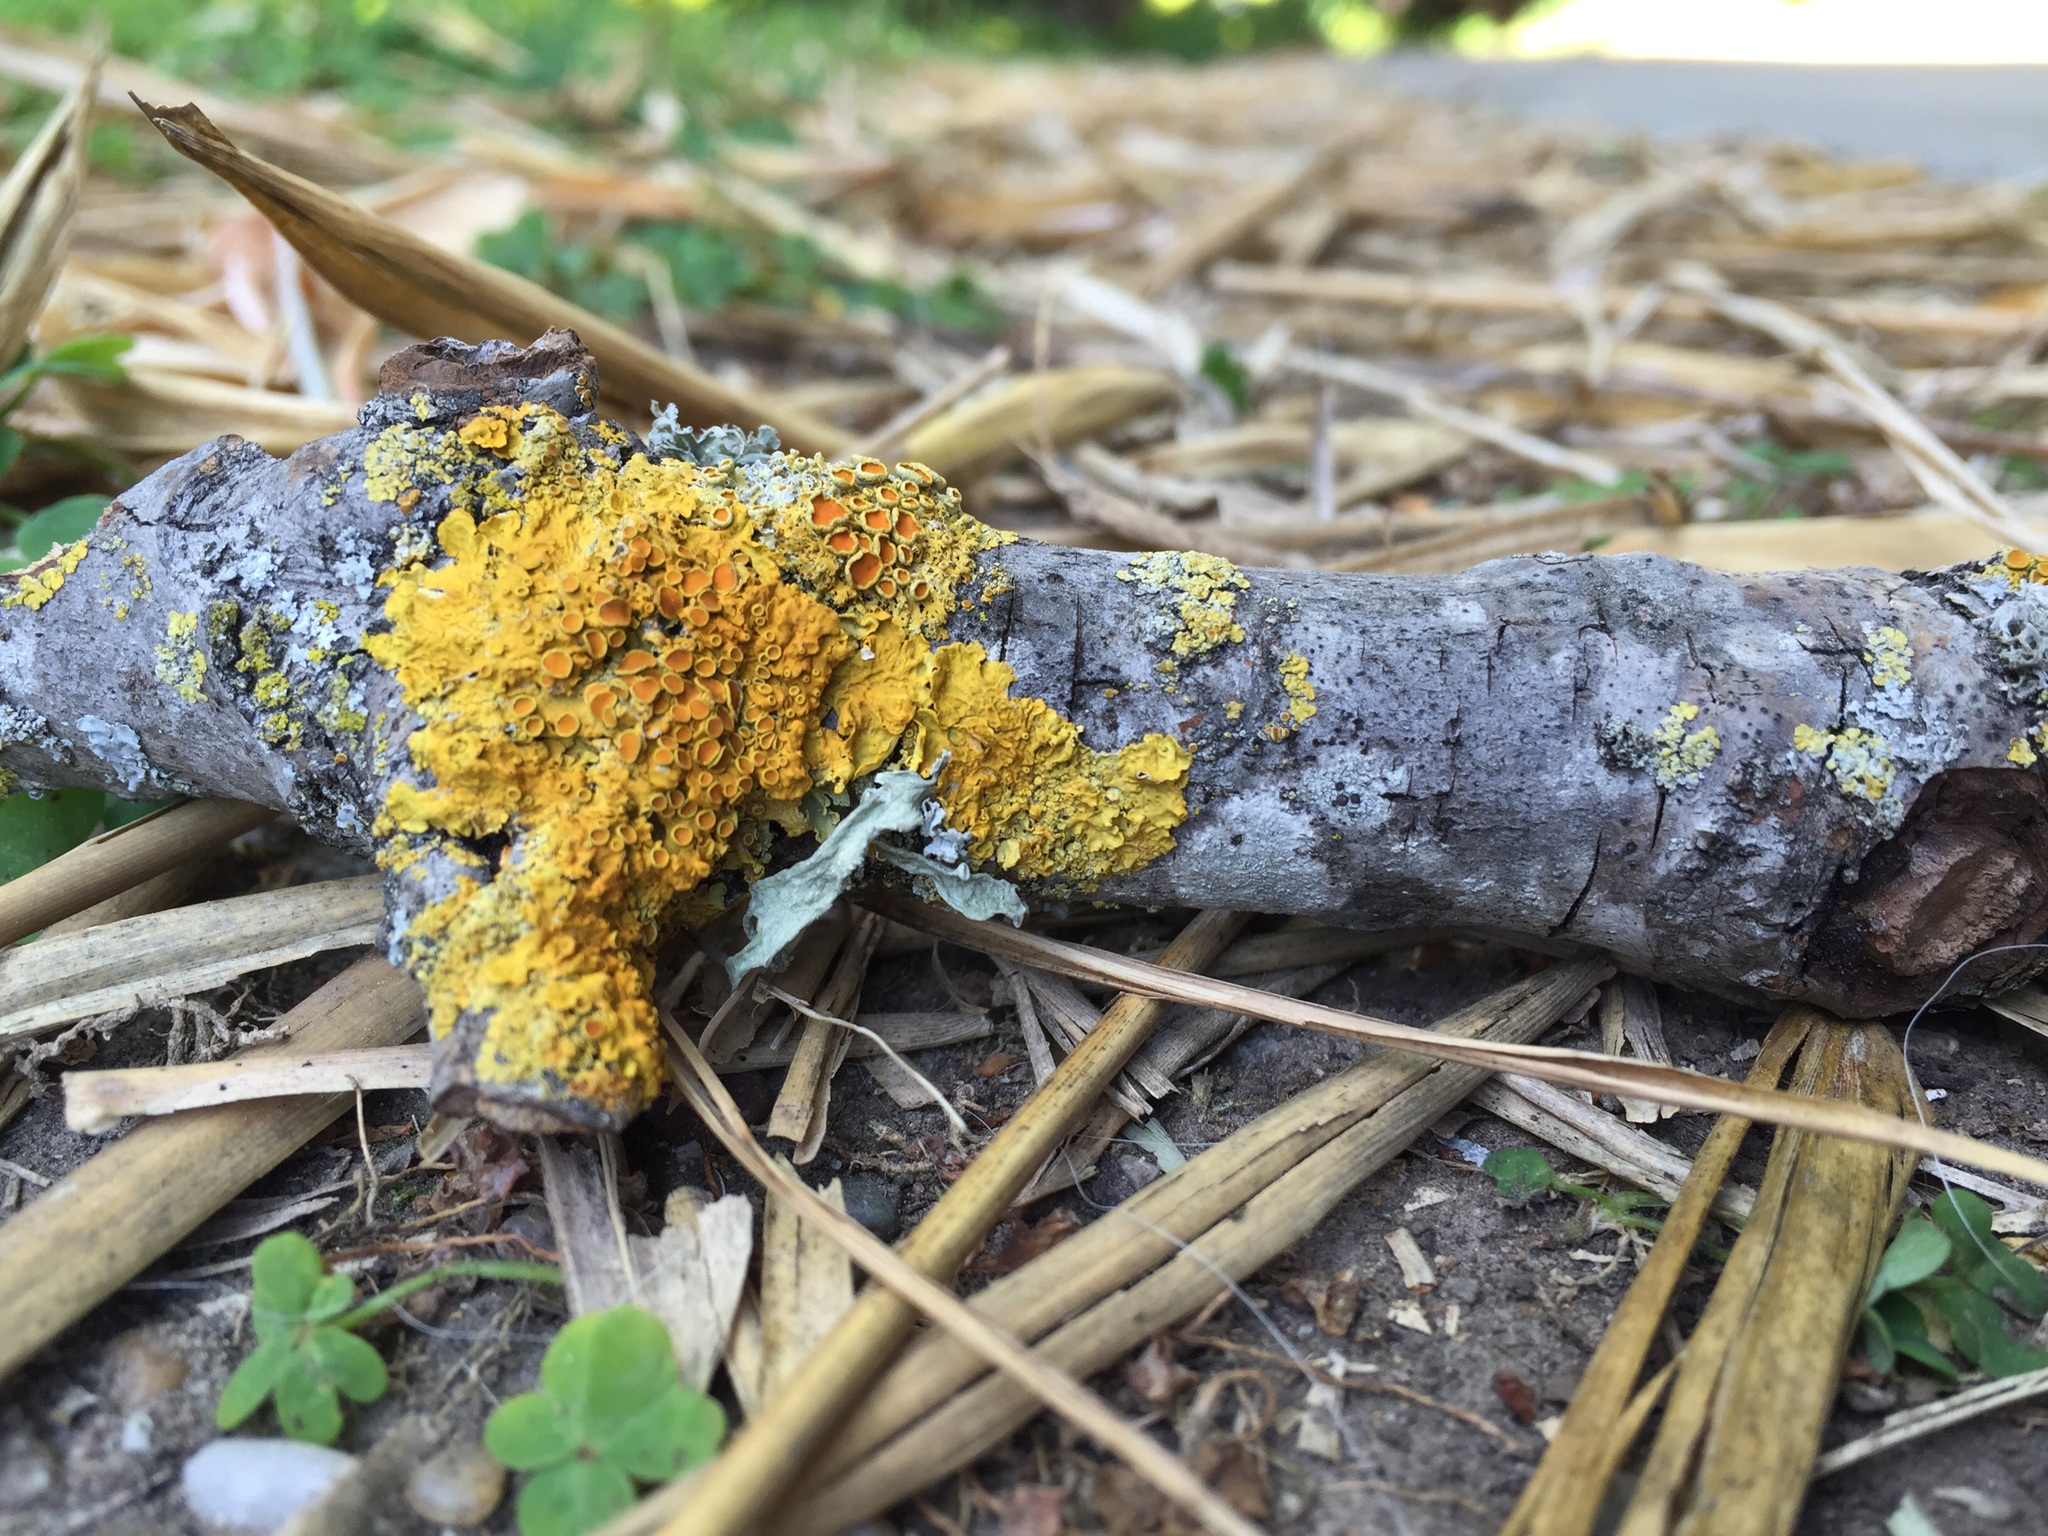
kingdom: Fungi
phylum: Ascomycota
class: Lecanoromycetes
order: Teloschistales
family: Teloschistaceae
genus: Xanthoria
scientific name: Xanthoria parietina
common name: Common orange lichen
